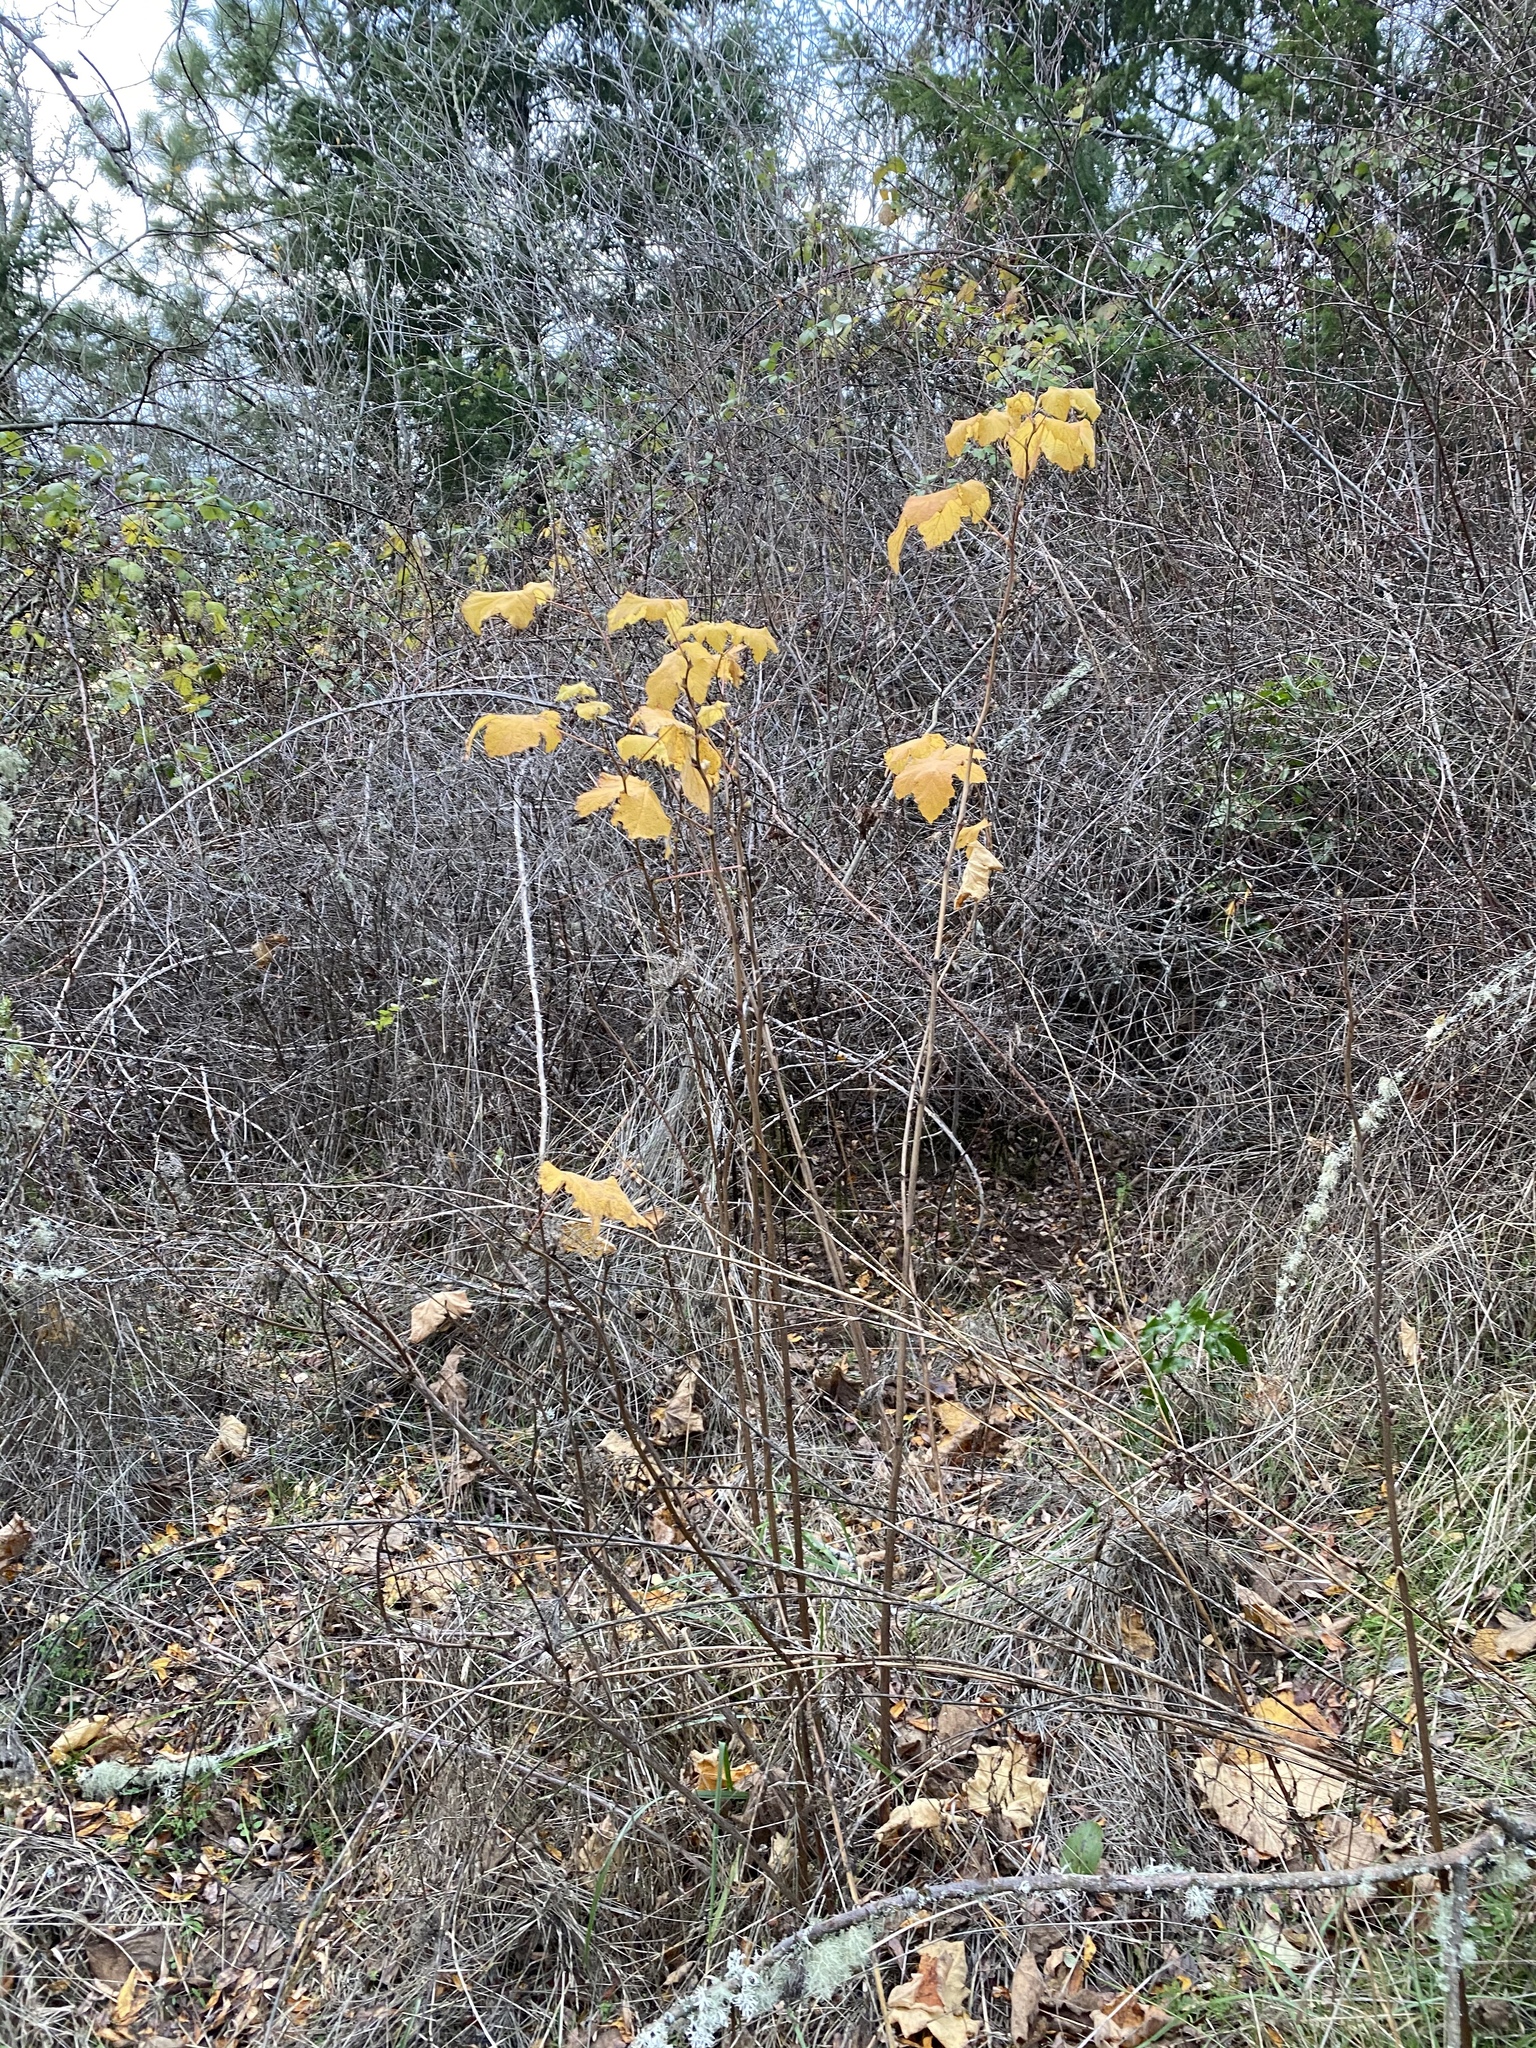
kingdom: Plantae
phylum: Tracheophyta
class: Magnoliopsida
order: Rosales
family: Rosaceae
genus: Rubus
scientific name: Rubus parviflorus
